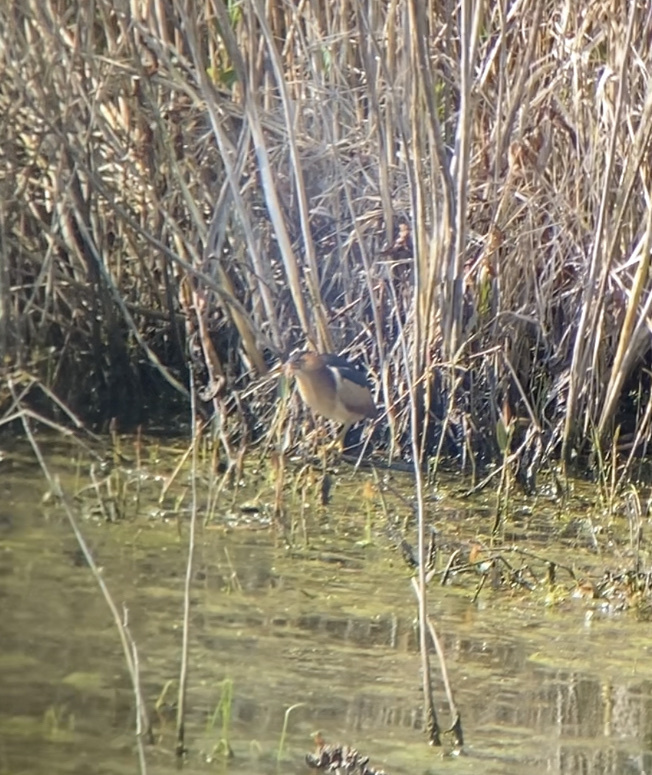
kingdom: Animalia
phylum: Chordata
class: Aves
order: Pelecaniformes
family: Ardeidae
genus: Ixobrychus
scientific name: Ixobrychus exilis
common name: Least bittern
